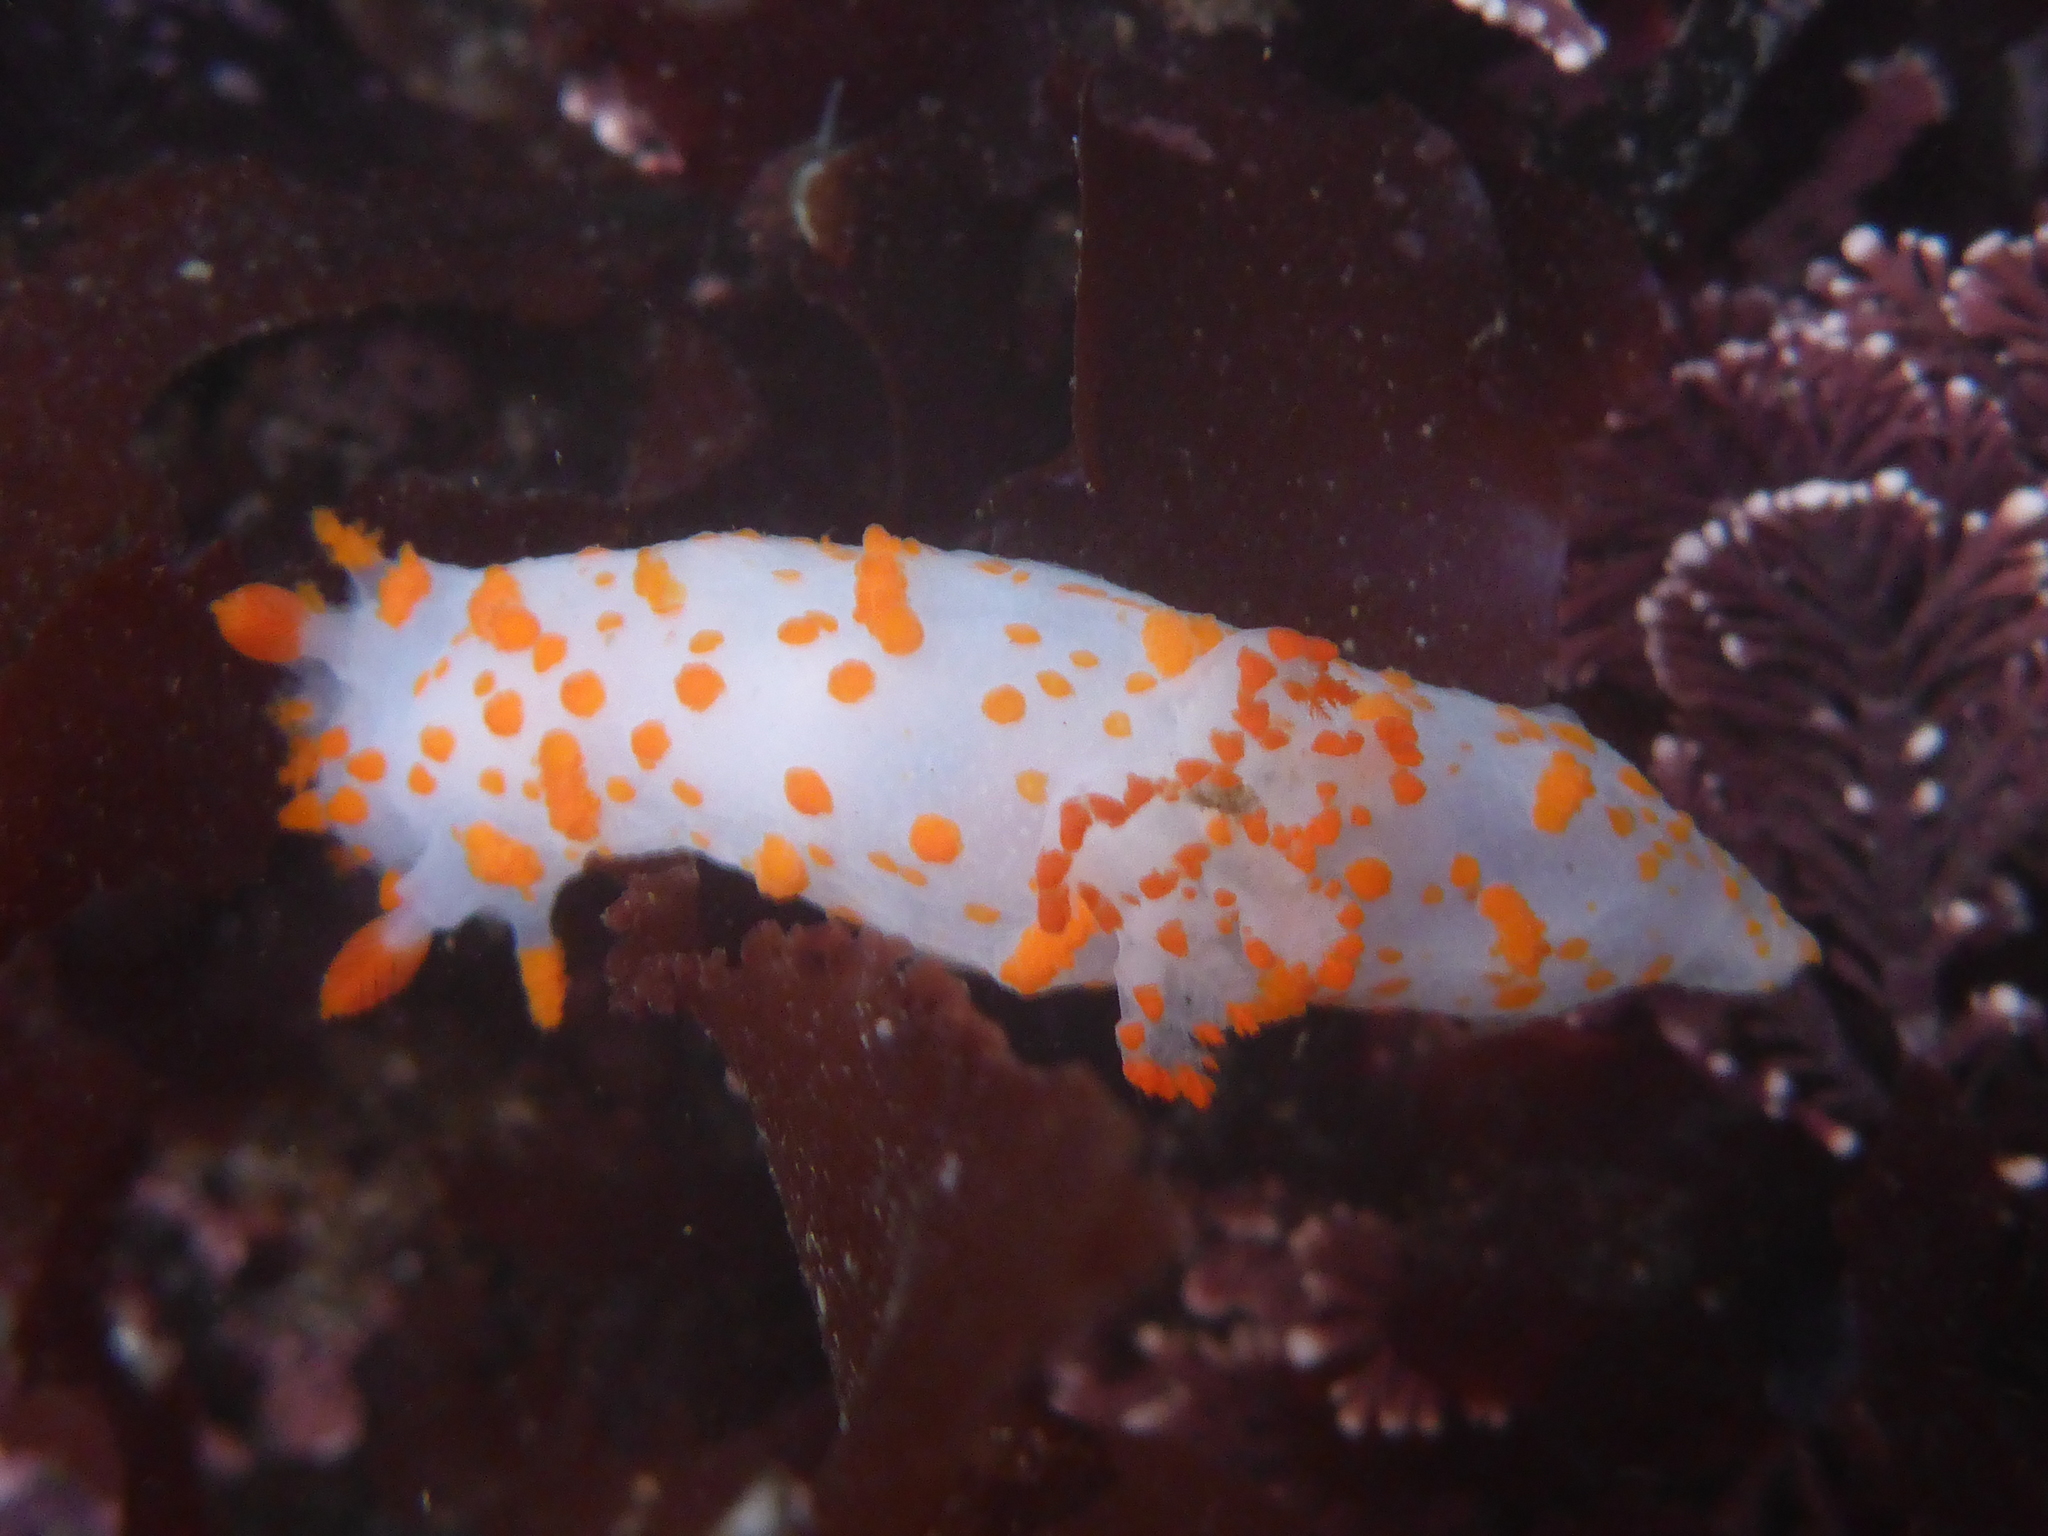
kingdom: Animalia
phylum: Mollusca
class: Gastropoda
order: Nudibranchia
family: Polyceridae
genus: Triopha
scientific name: Triopha catalinae
